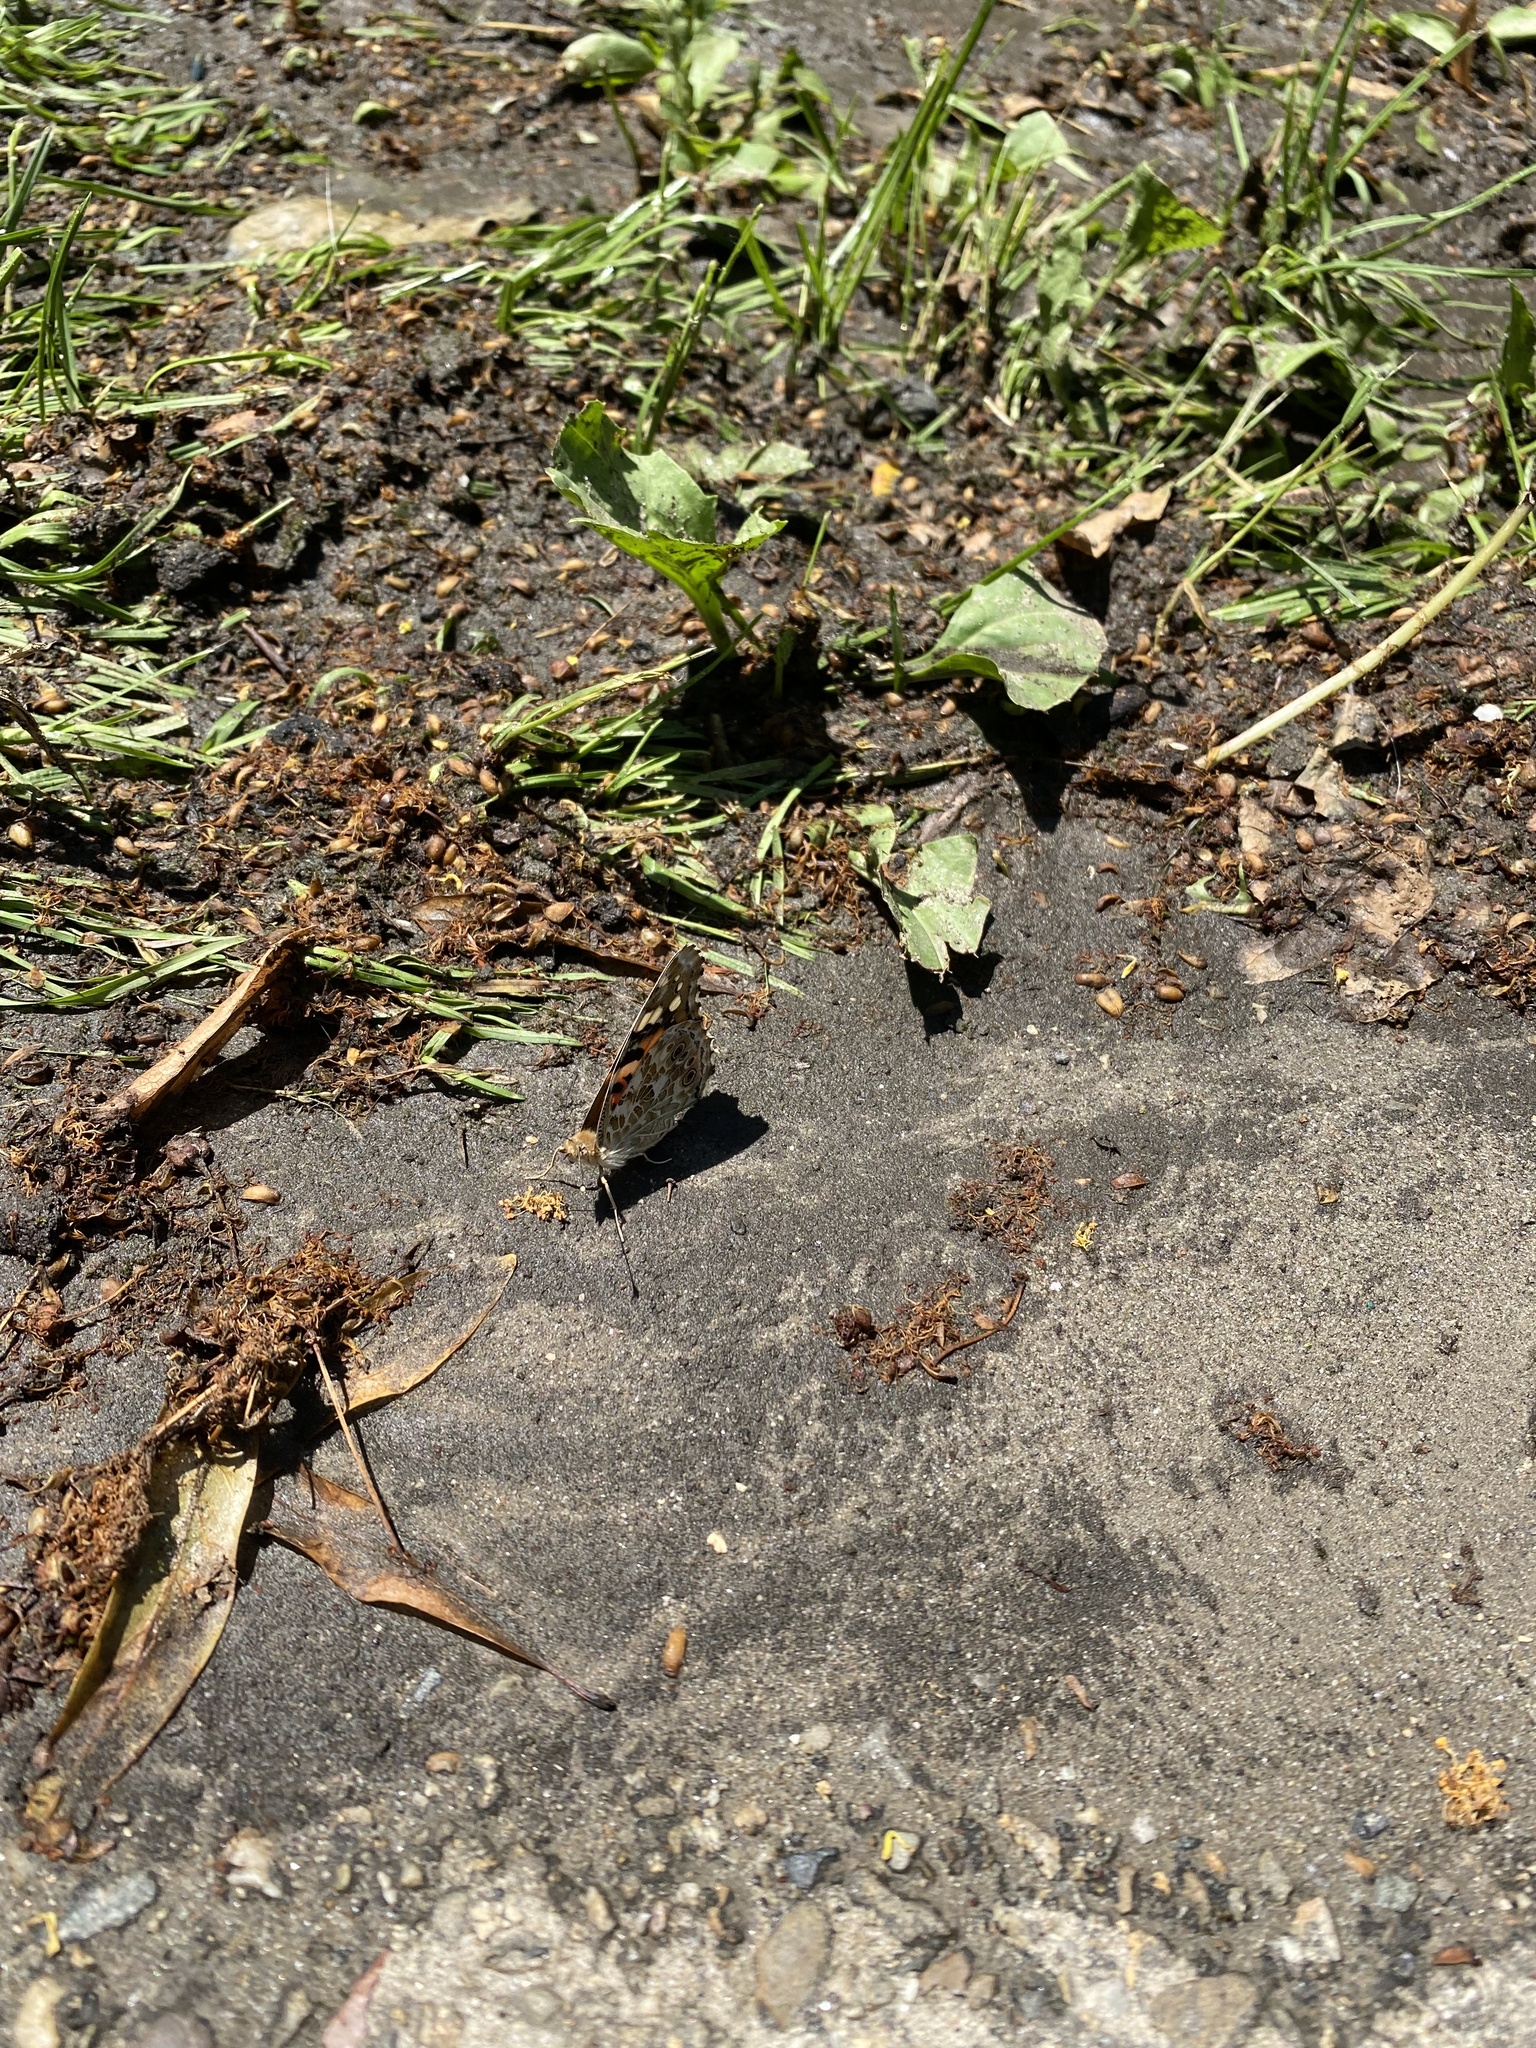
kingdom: Animalia
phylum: Arthropoda
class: Insecta
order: Lepidoptera
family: Nymphalidae
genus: Vanessa
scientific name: Vanessa cardui
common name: Painted lady
